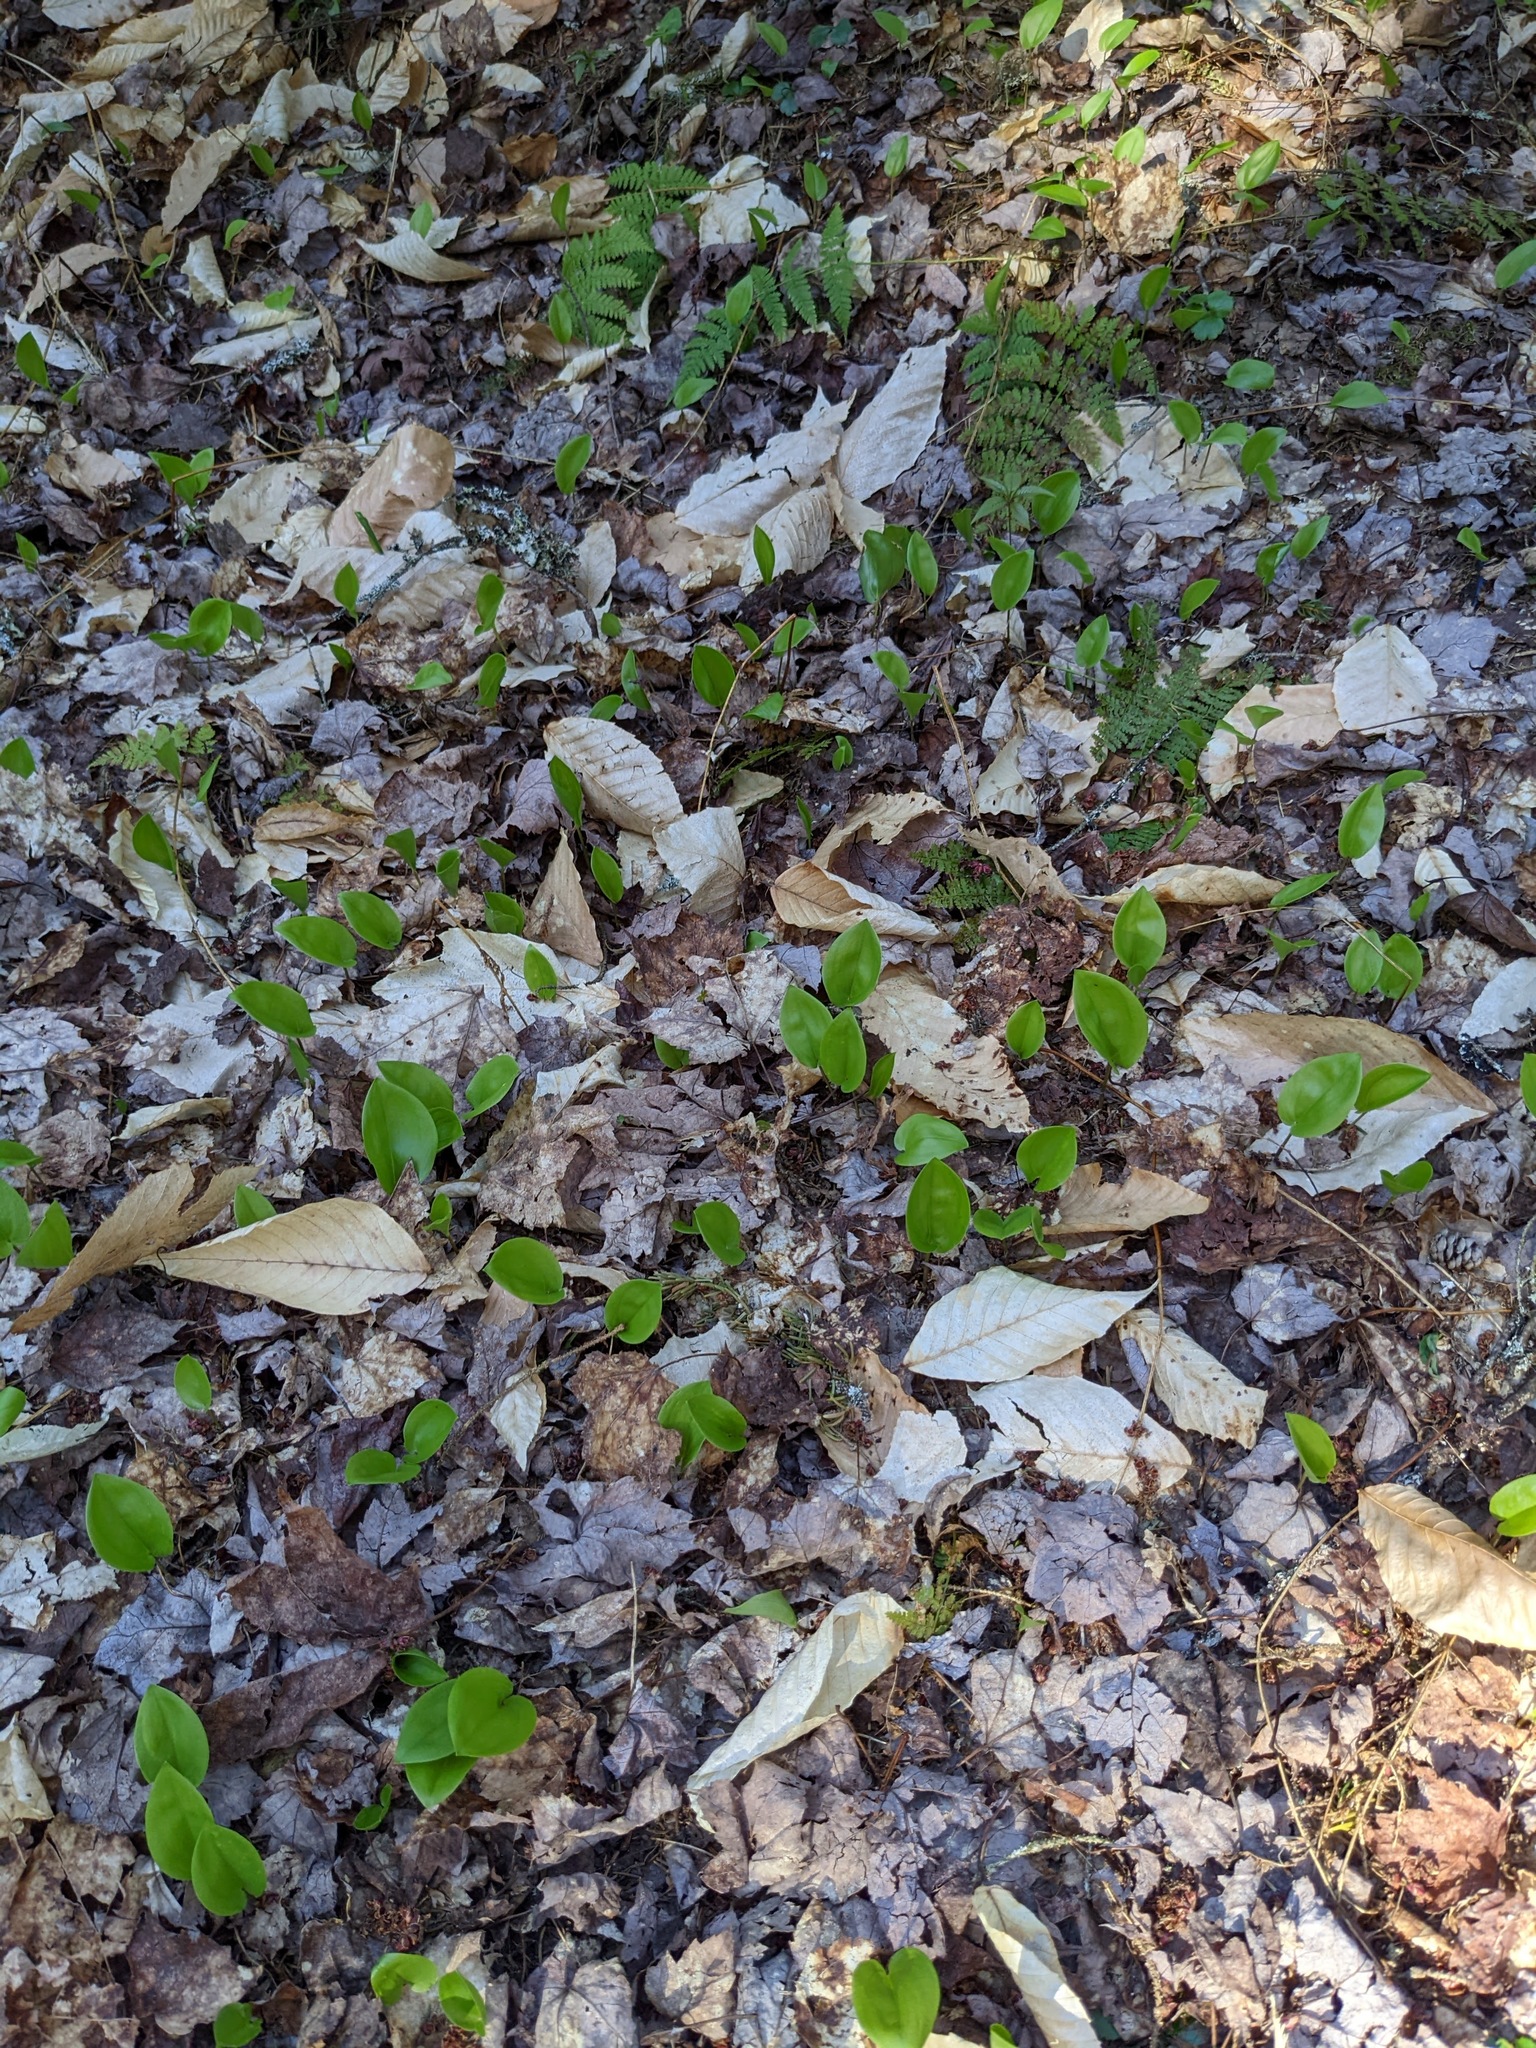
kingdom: Plantae
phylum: Tracheophyta
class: Liliopsida
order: Asparagales
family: Asparagaceae
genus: Maianthemum
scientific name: Maianthemum canadense
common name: False lily-of-the-valley
